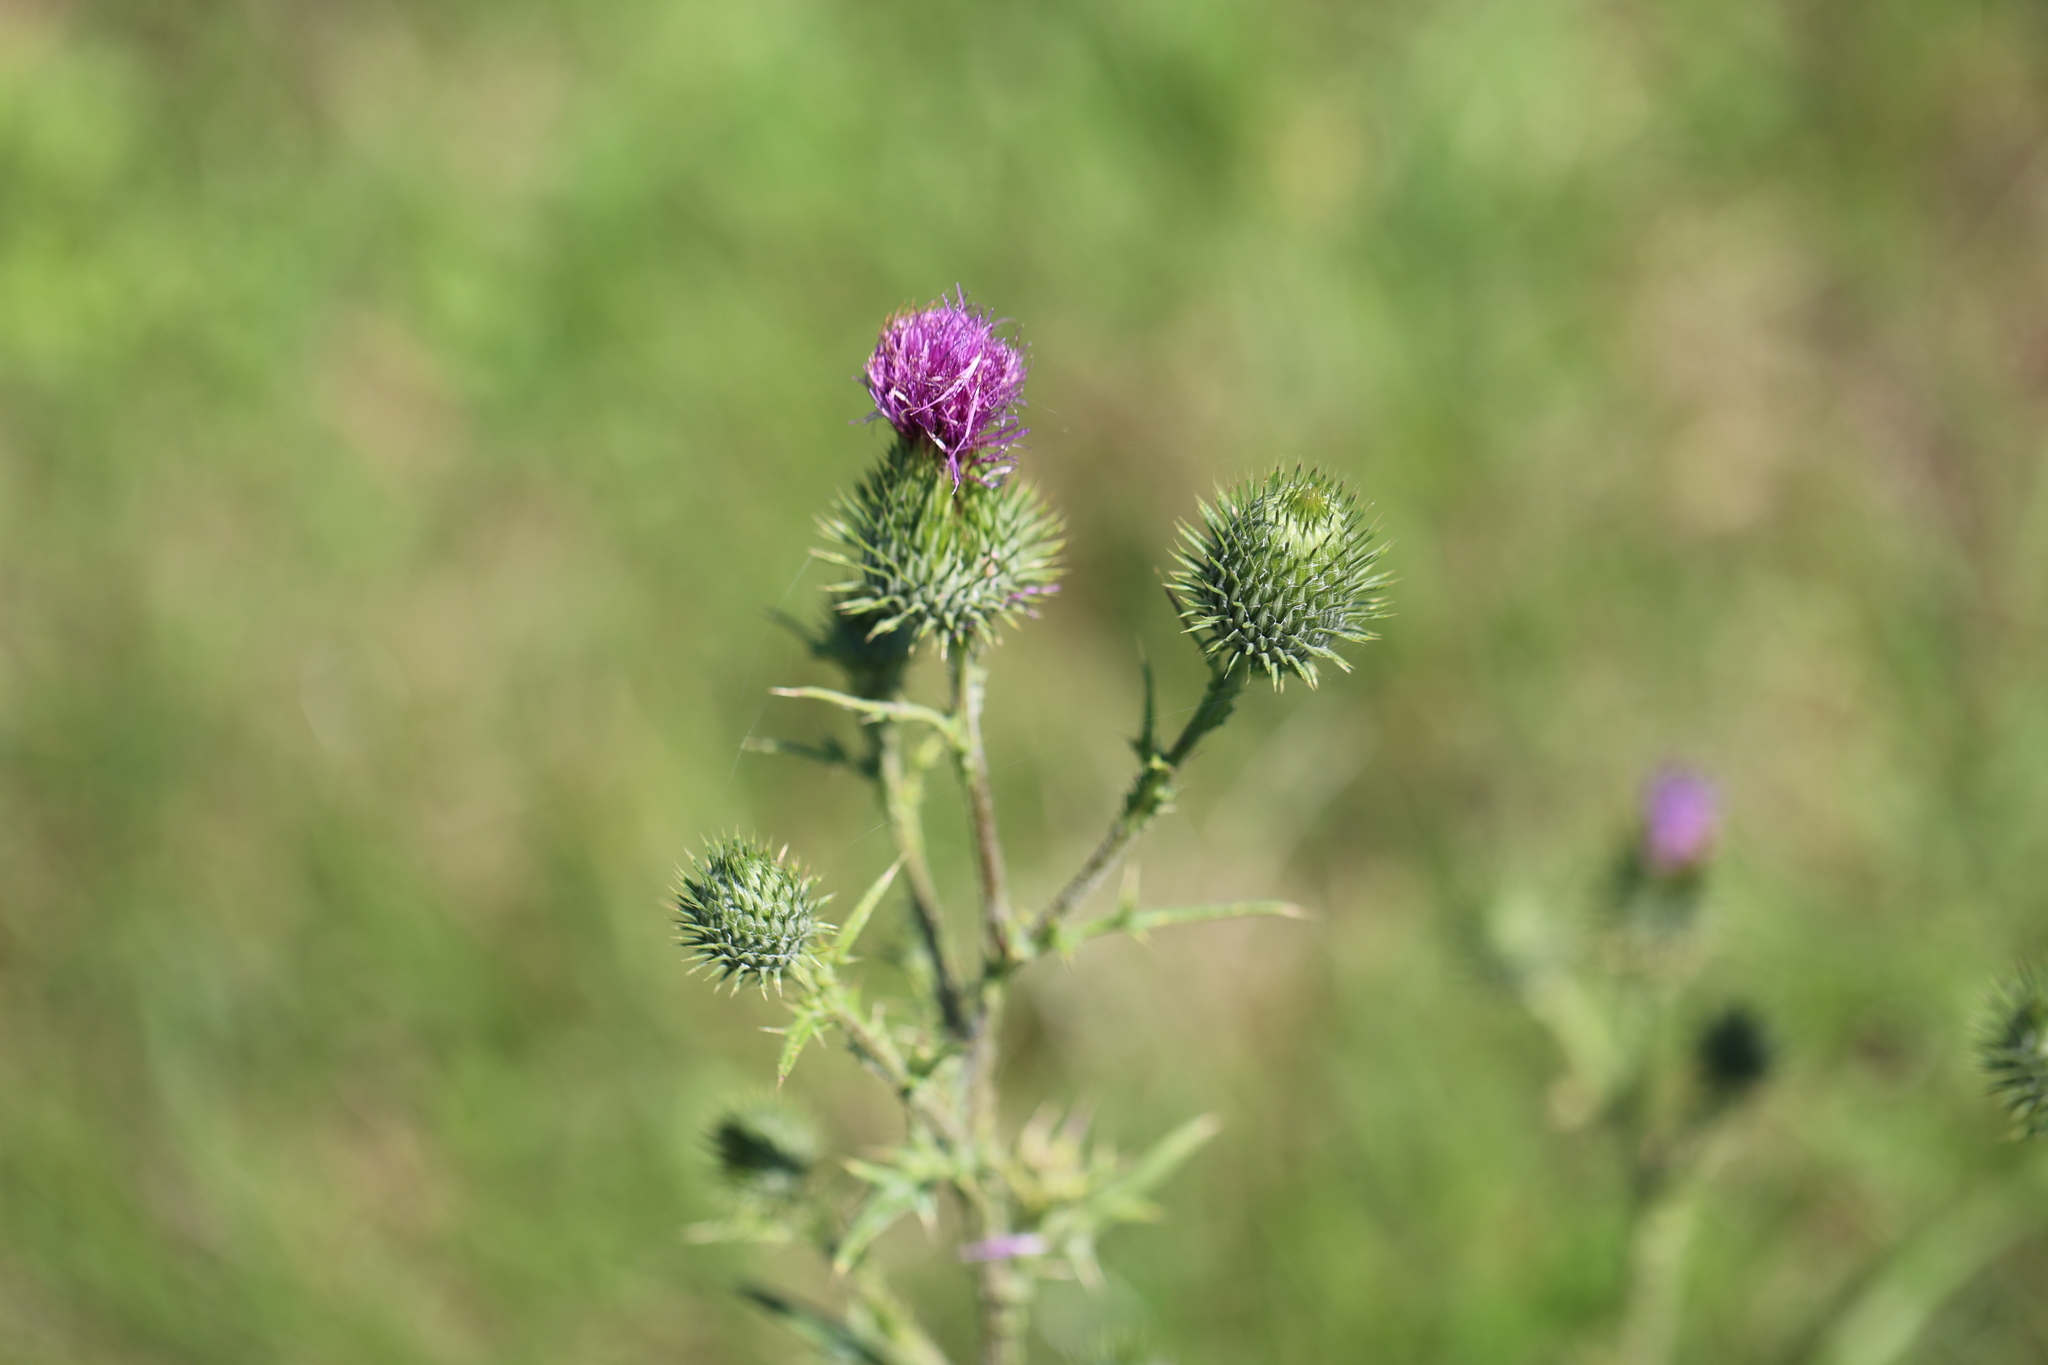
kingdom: Plantae
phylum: Tracheophyta
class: Magnoliopsida
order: Asterales
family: Asteraceae
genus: Cirsium
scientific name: Cirsium vulgare
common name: Bull thistle
